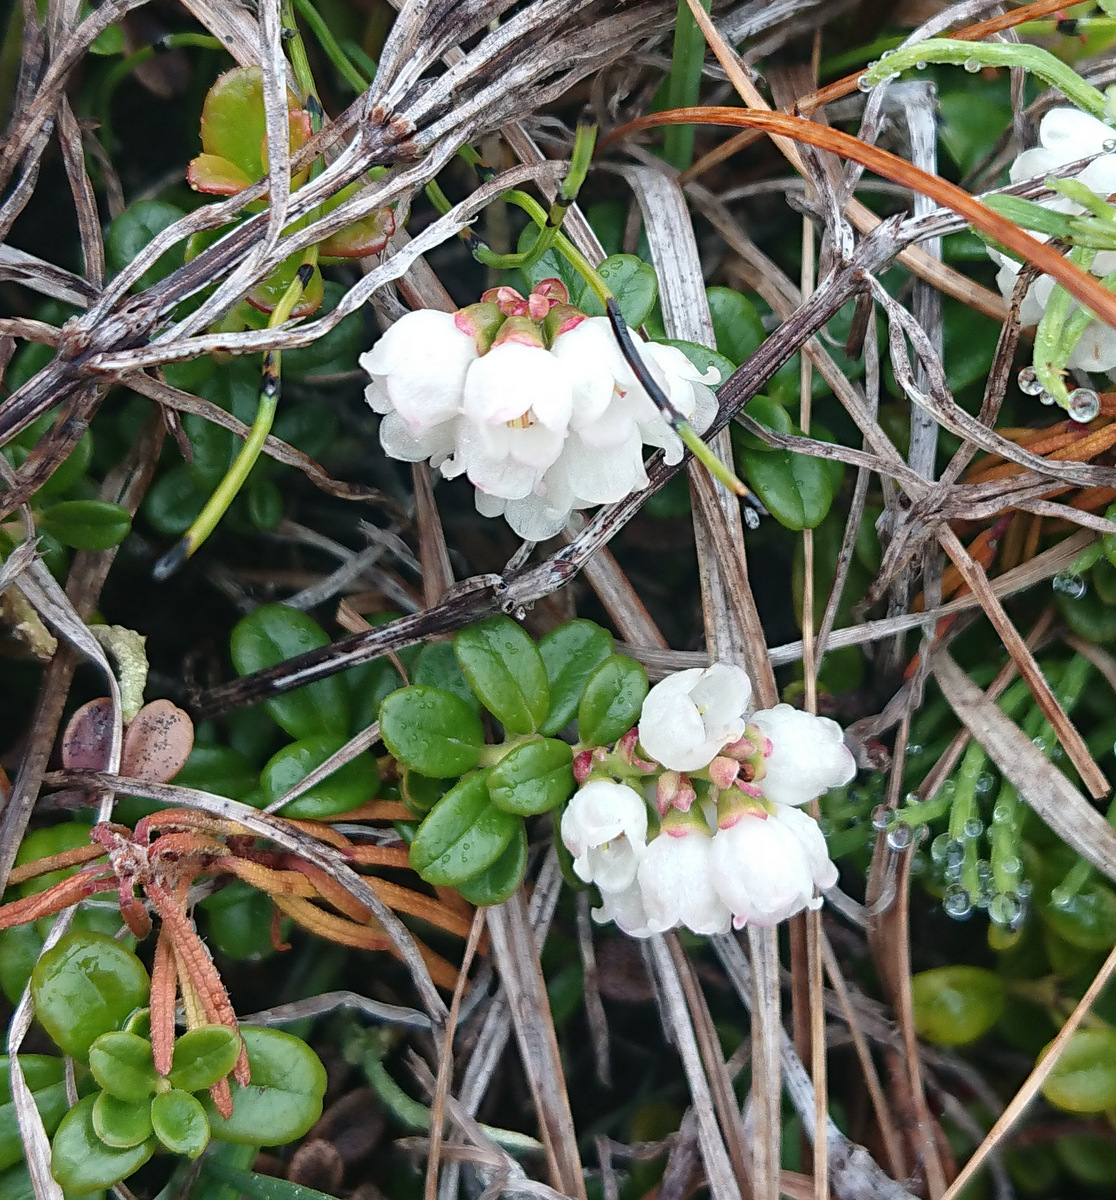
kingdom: Plantae
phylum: Tracheophyta
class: Magnoliopsida
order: Ericales
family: Ericaceae
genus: Vaccinium
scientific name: Vaccinium vitis-idaea
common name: Cowberry
